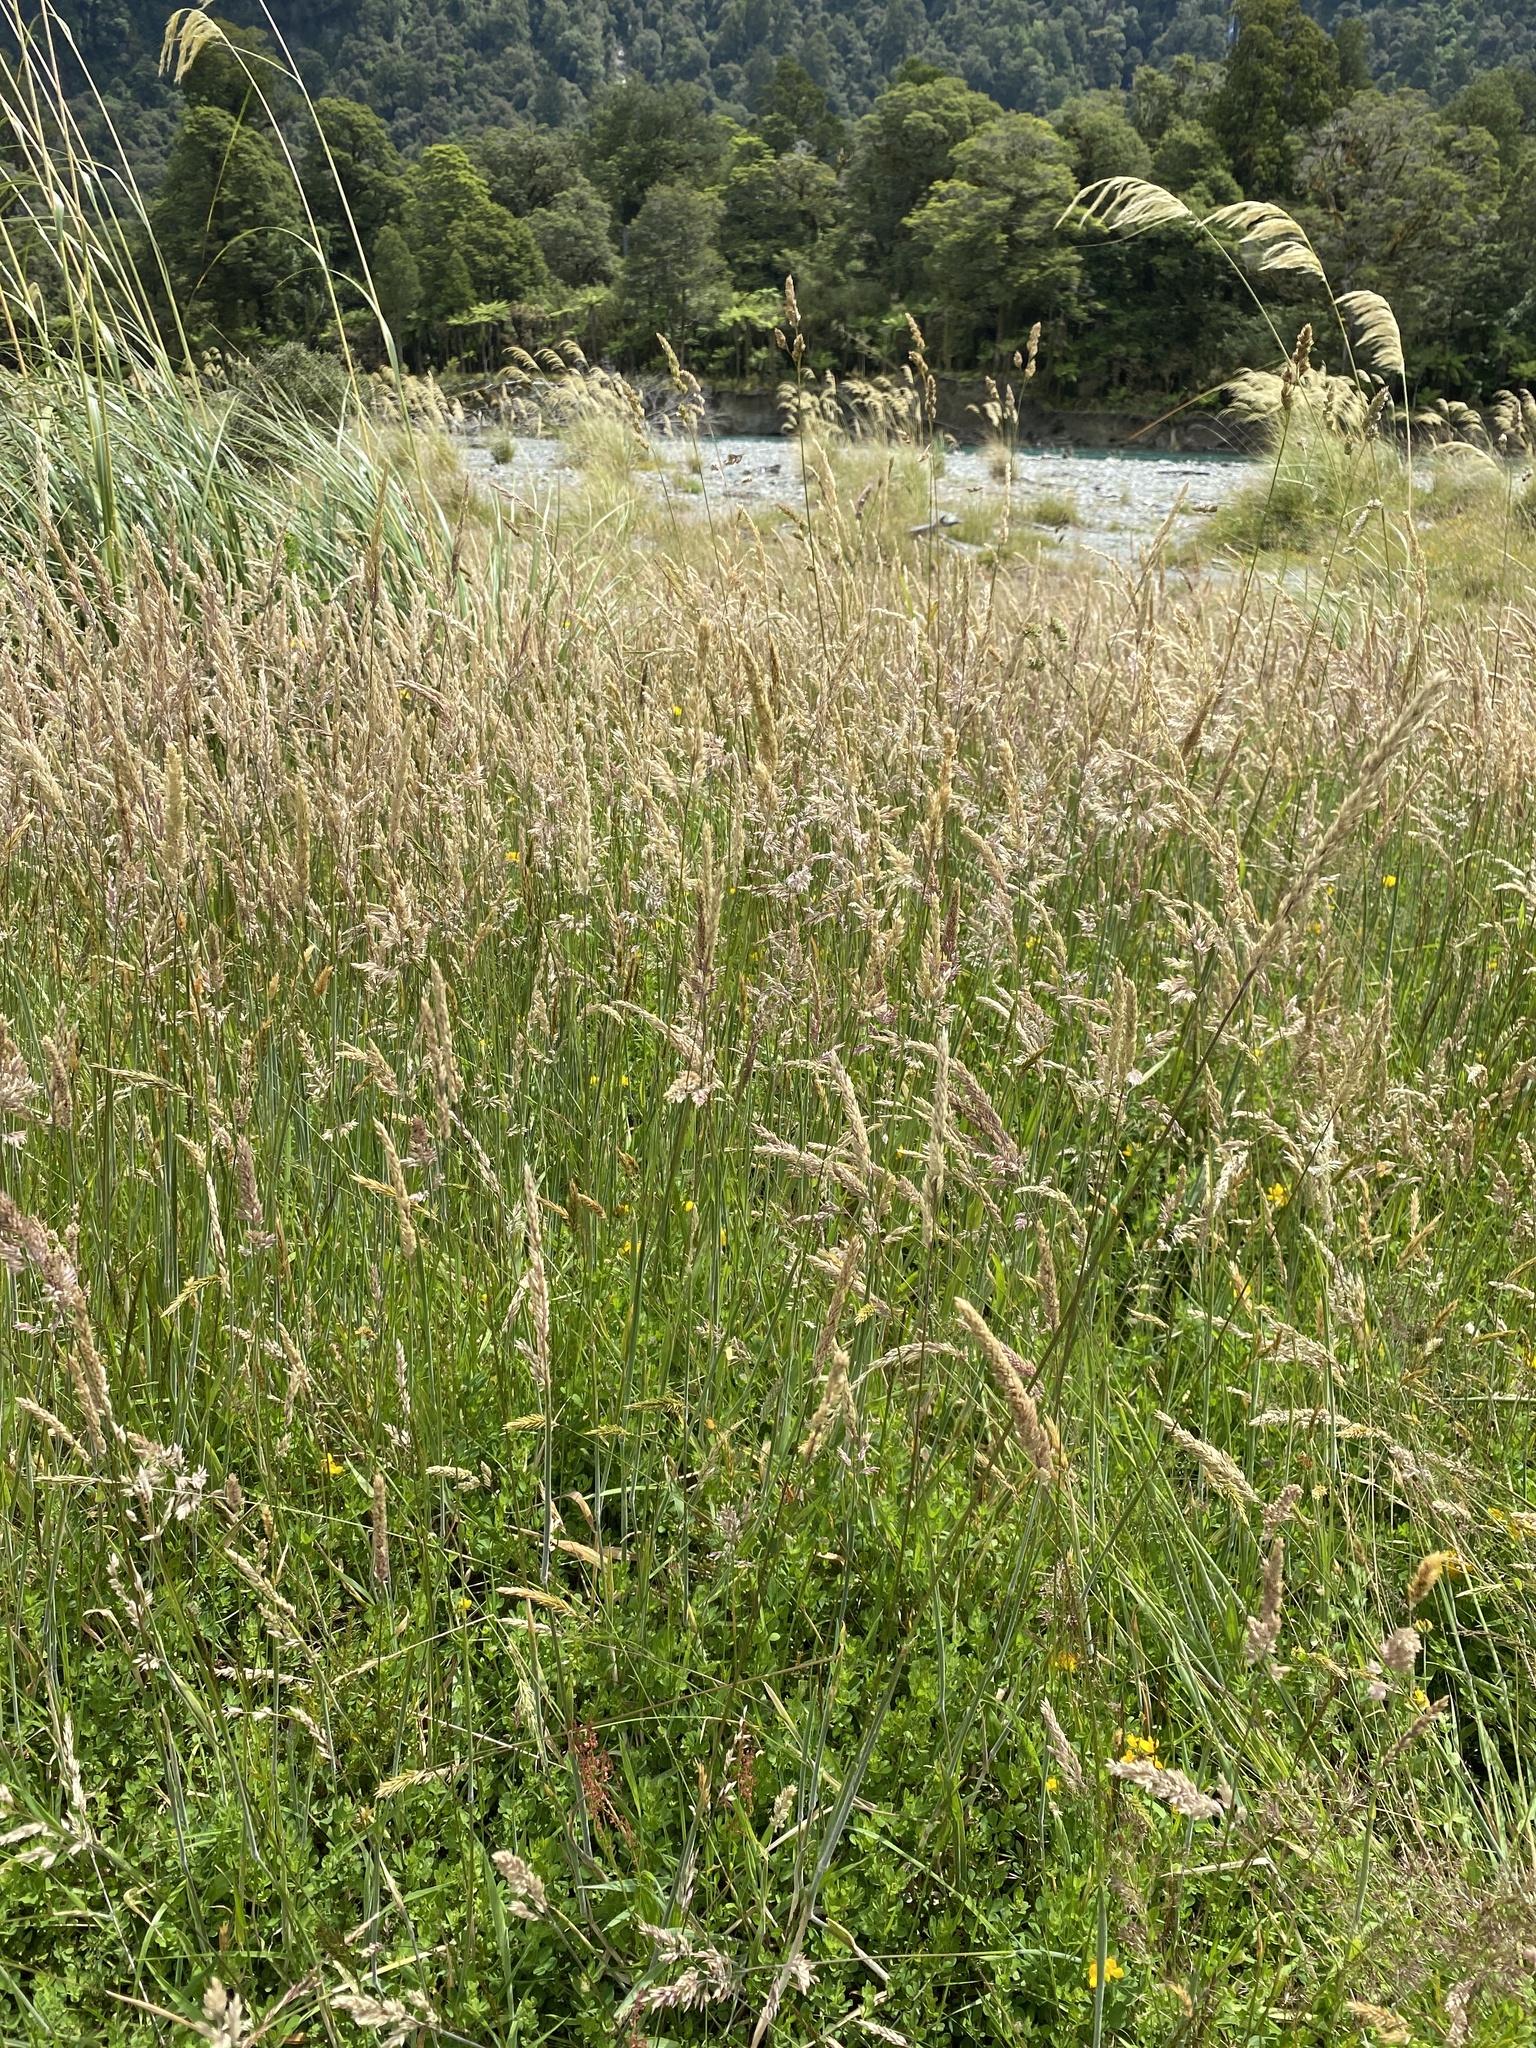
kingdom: Plantae
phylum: Tracheophyta
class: Liliopsida
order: Poales
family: Poaceae
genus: Holcus
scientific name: Holcus lanatus
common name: Yorkshire-fog
